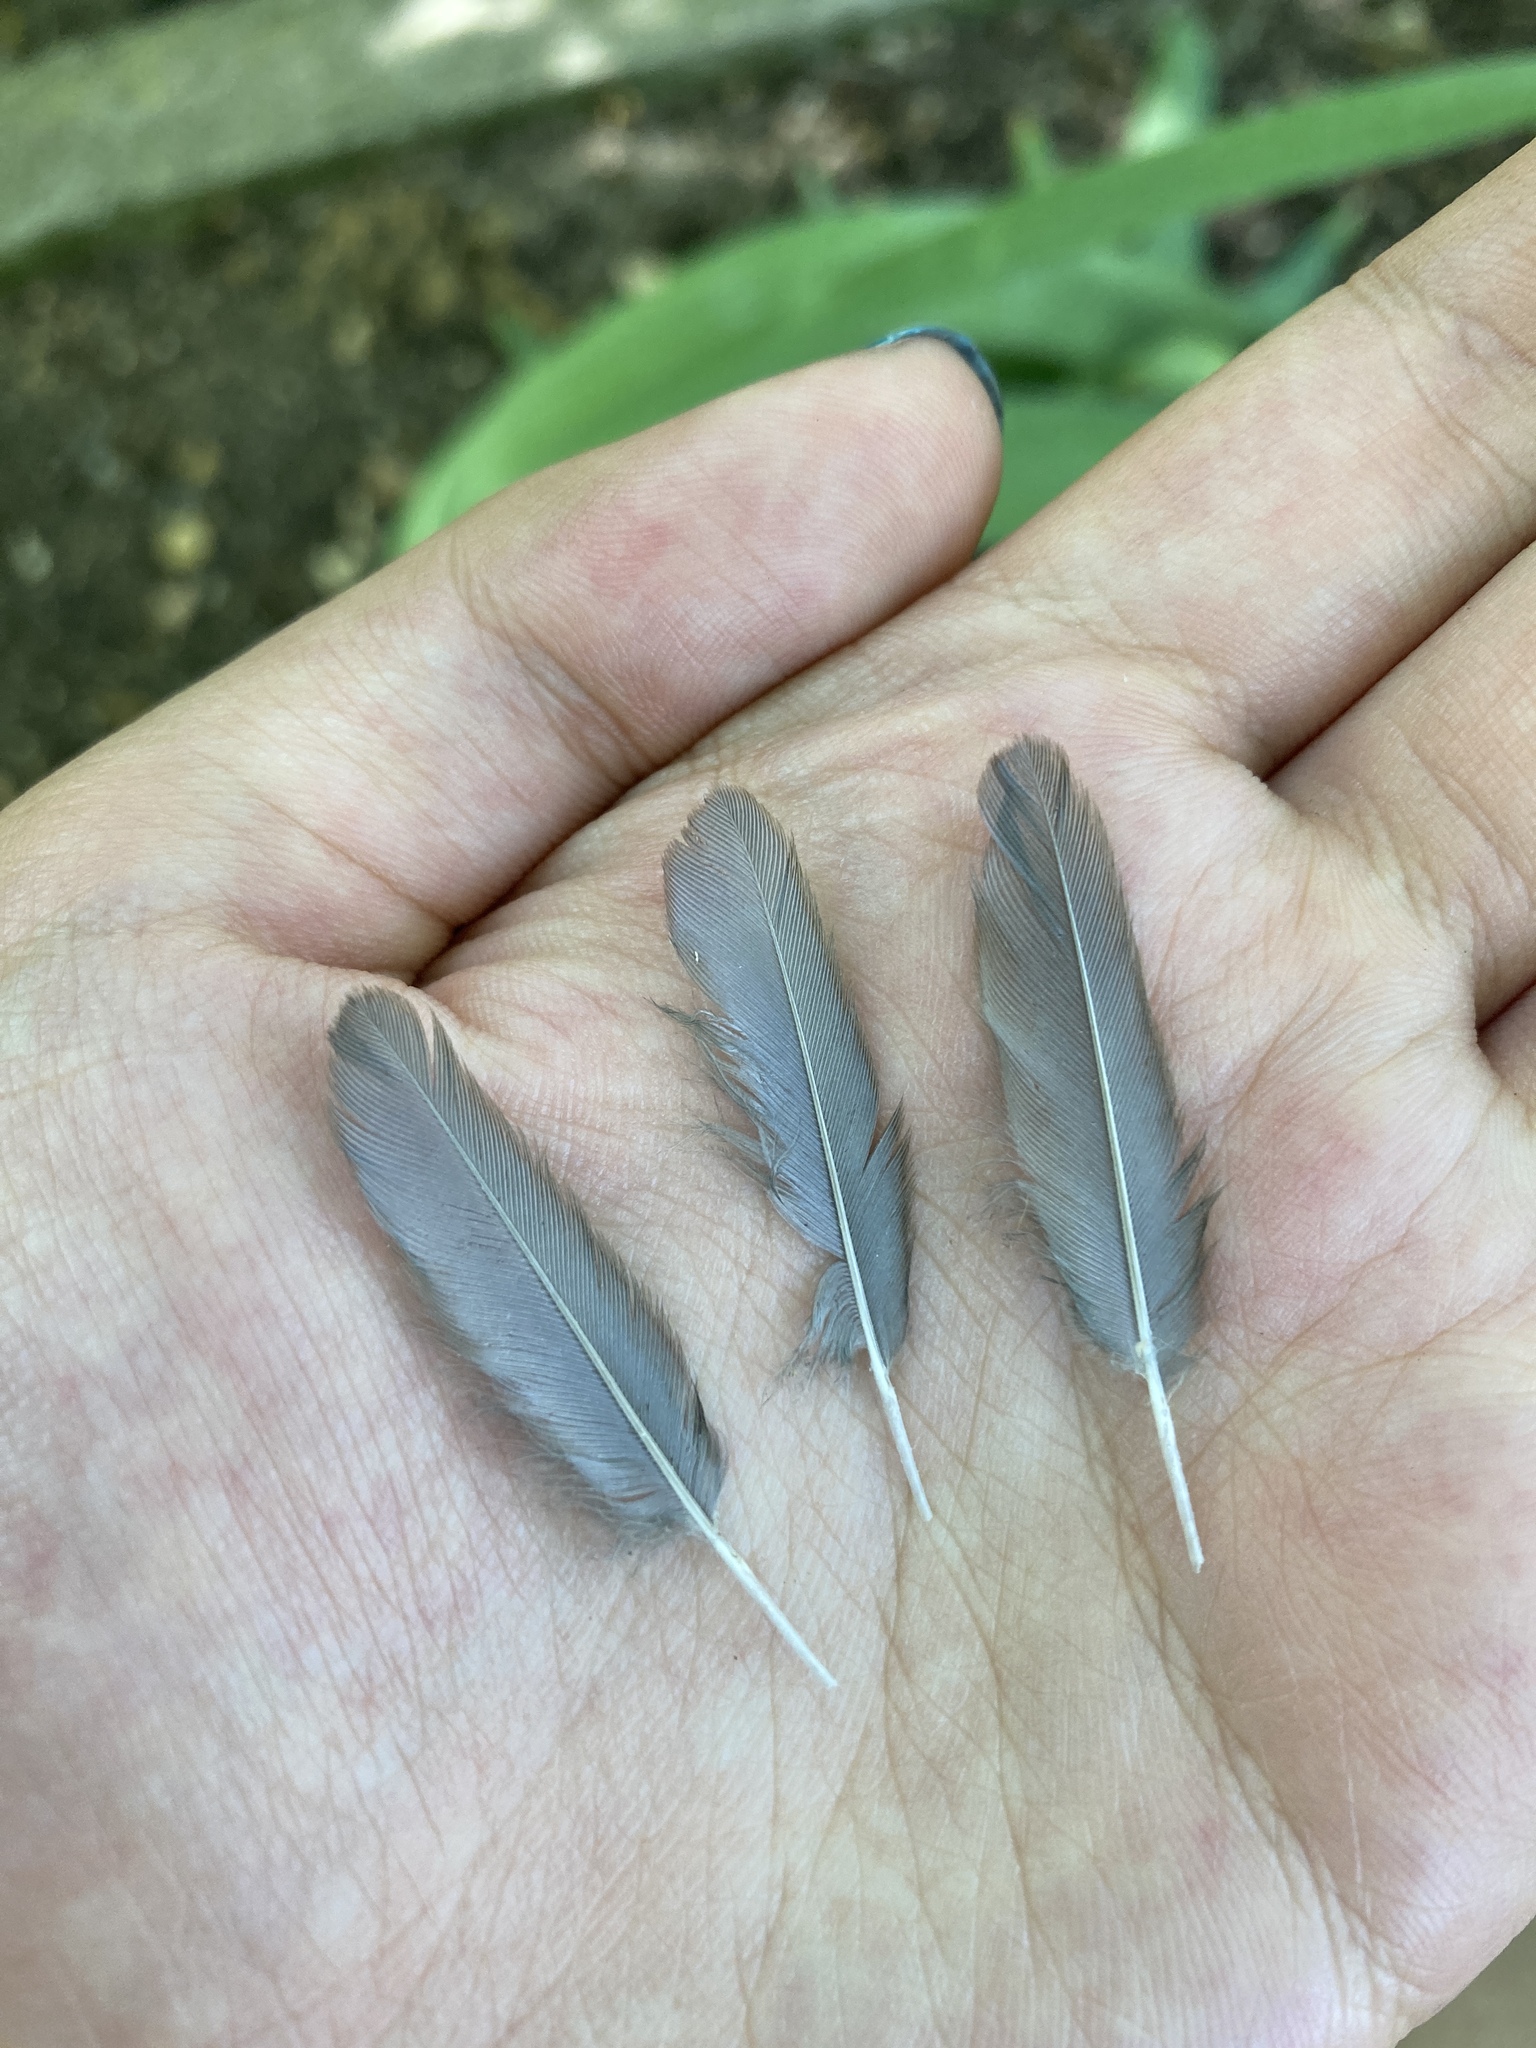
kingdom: Animalia
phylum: Chordata
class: Aves
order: Passeriformes
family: Turdidae
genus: Turdus
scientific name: Turdus merula
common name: Common blackbird
